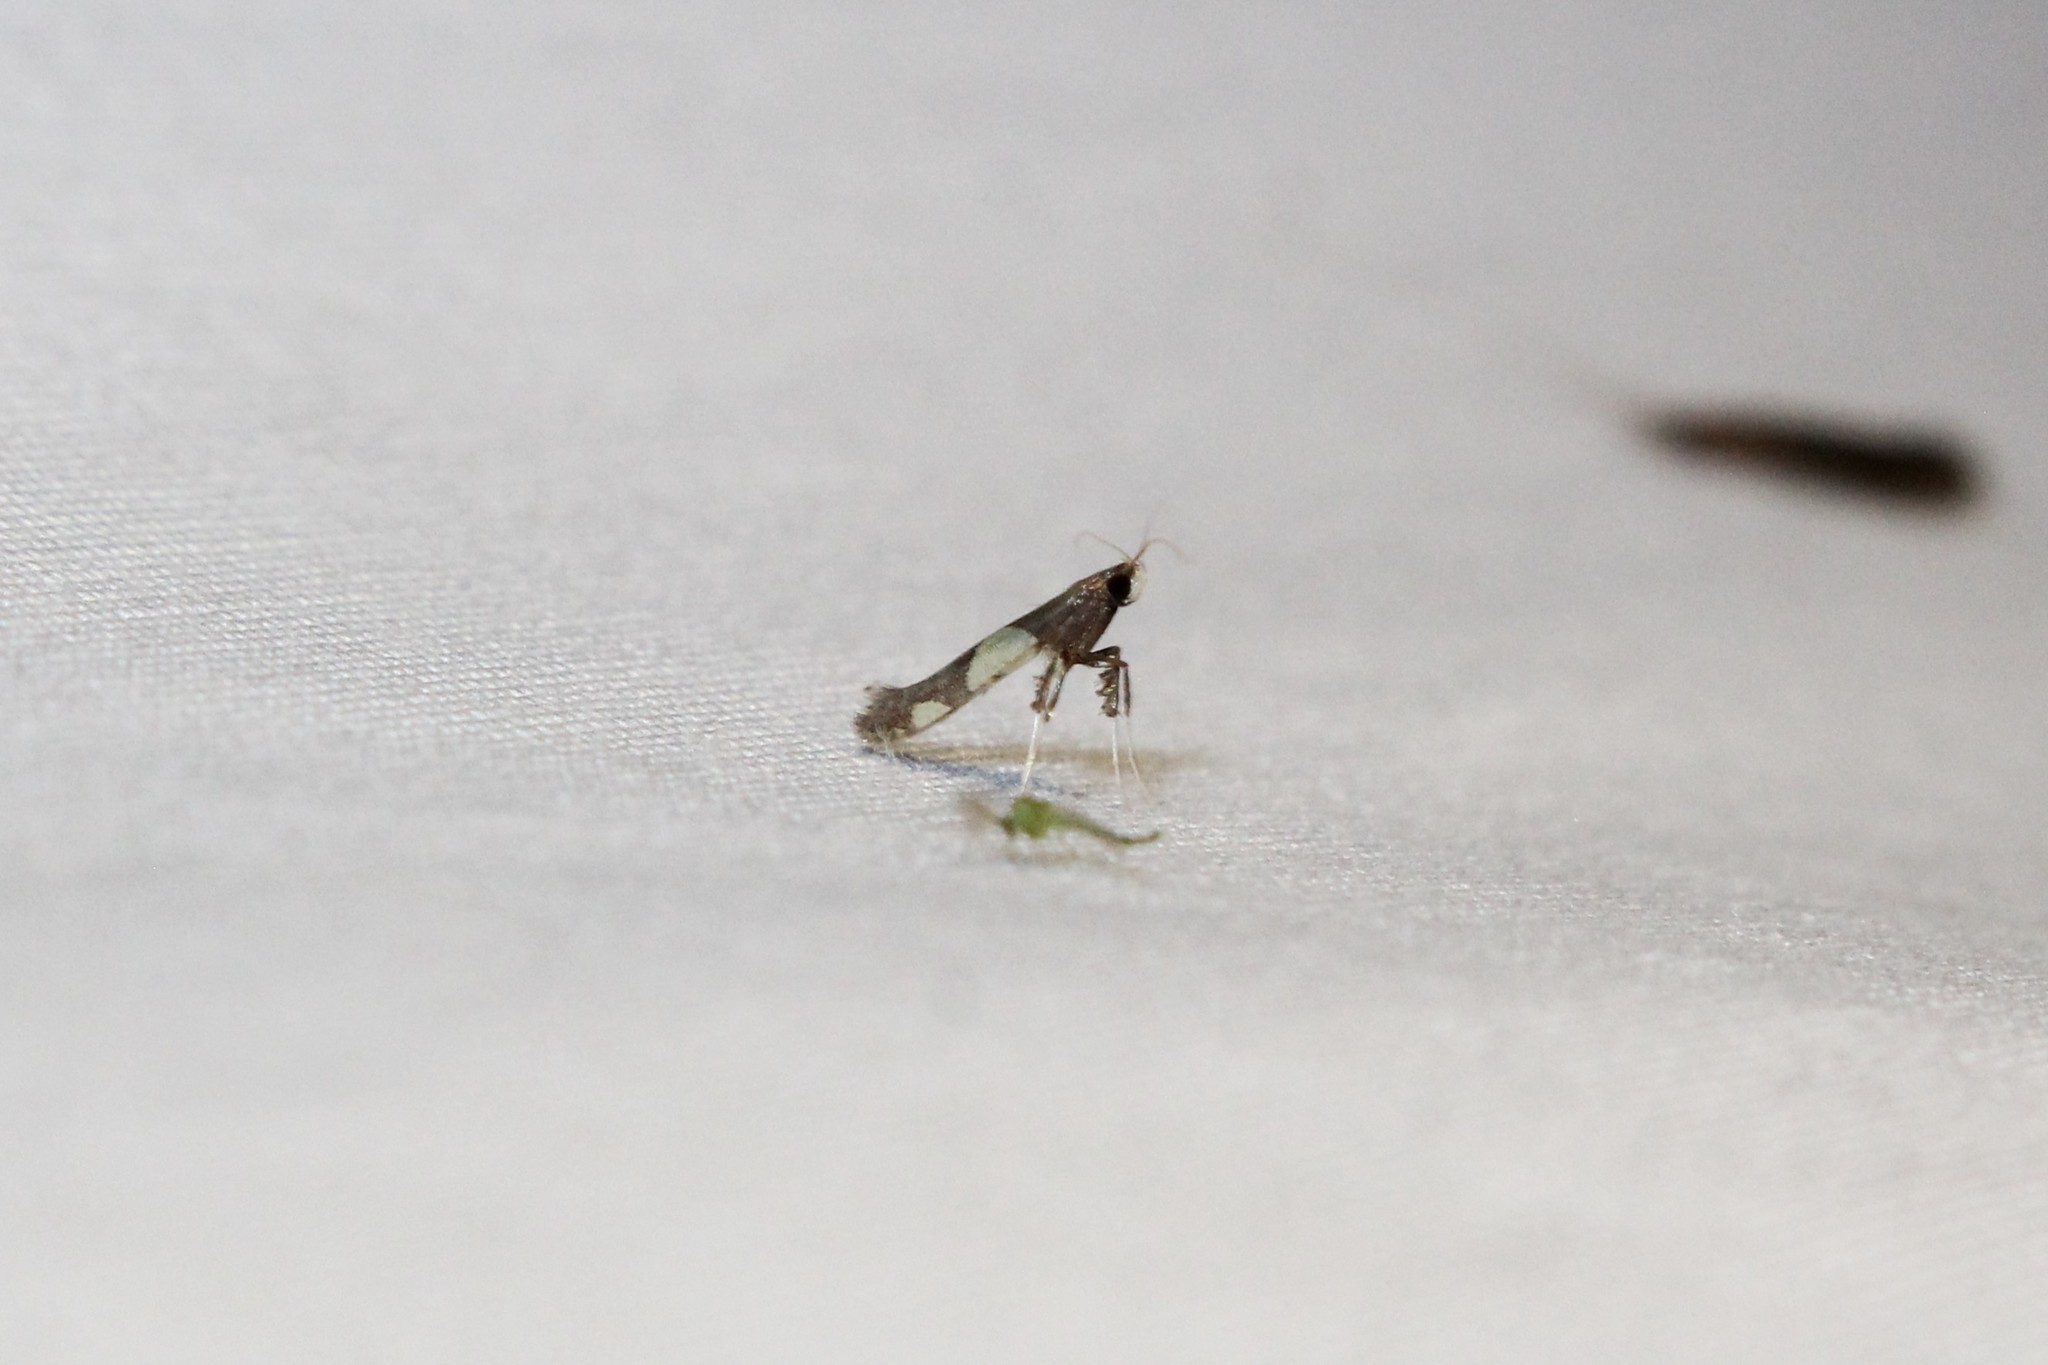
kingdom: Animalia
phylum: Arthropoda
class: Insecta
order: Lepidoptera
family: Gracillariidae
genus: Caloptilia
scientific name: Caloptilia bimaculatella
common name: Maple caloptilia moth
